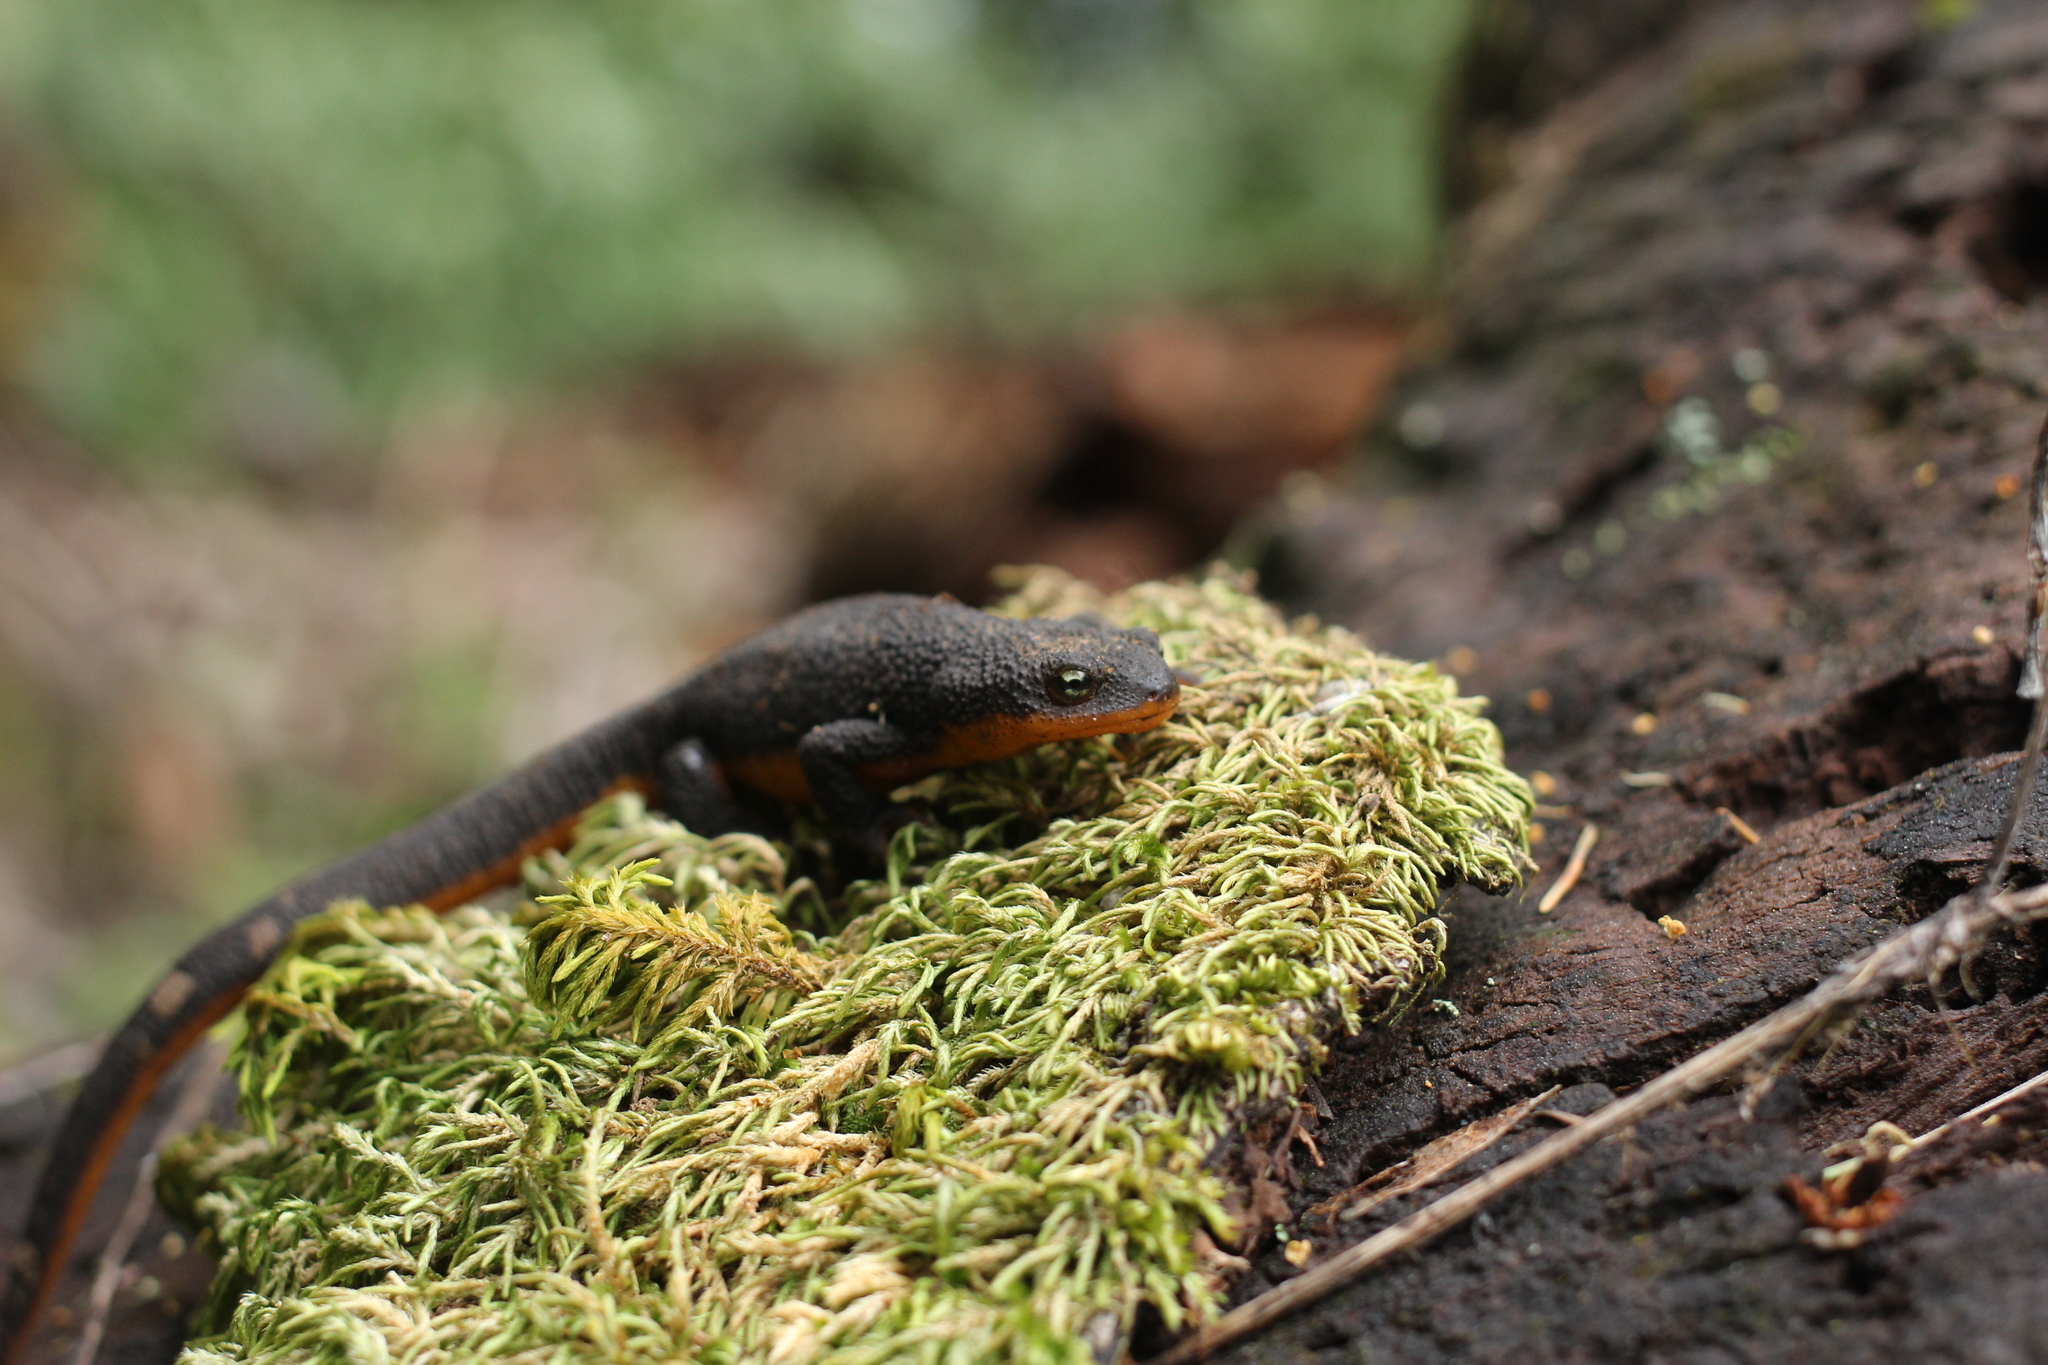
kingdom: Animalia
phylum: Chordata
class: Amphibia
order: Caudata
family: Salamandridae
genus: Taricha
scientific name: Taricha granulosa
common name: Roughskin newt
